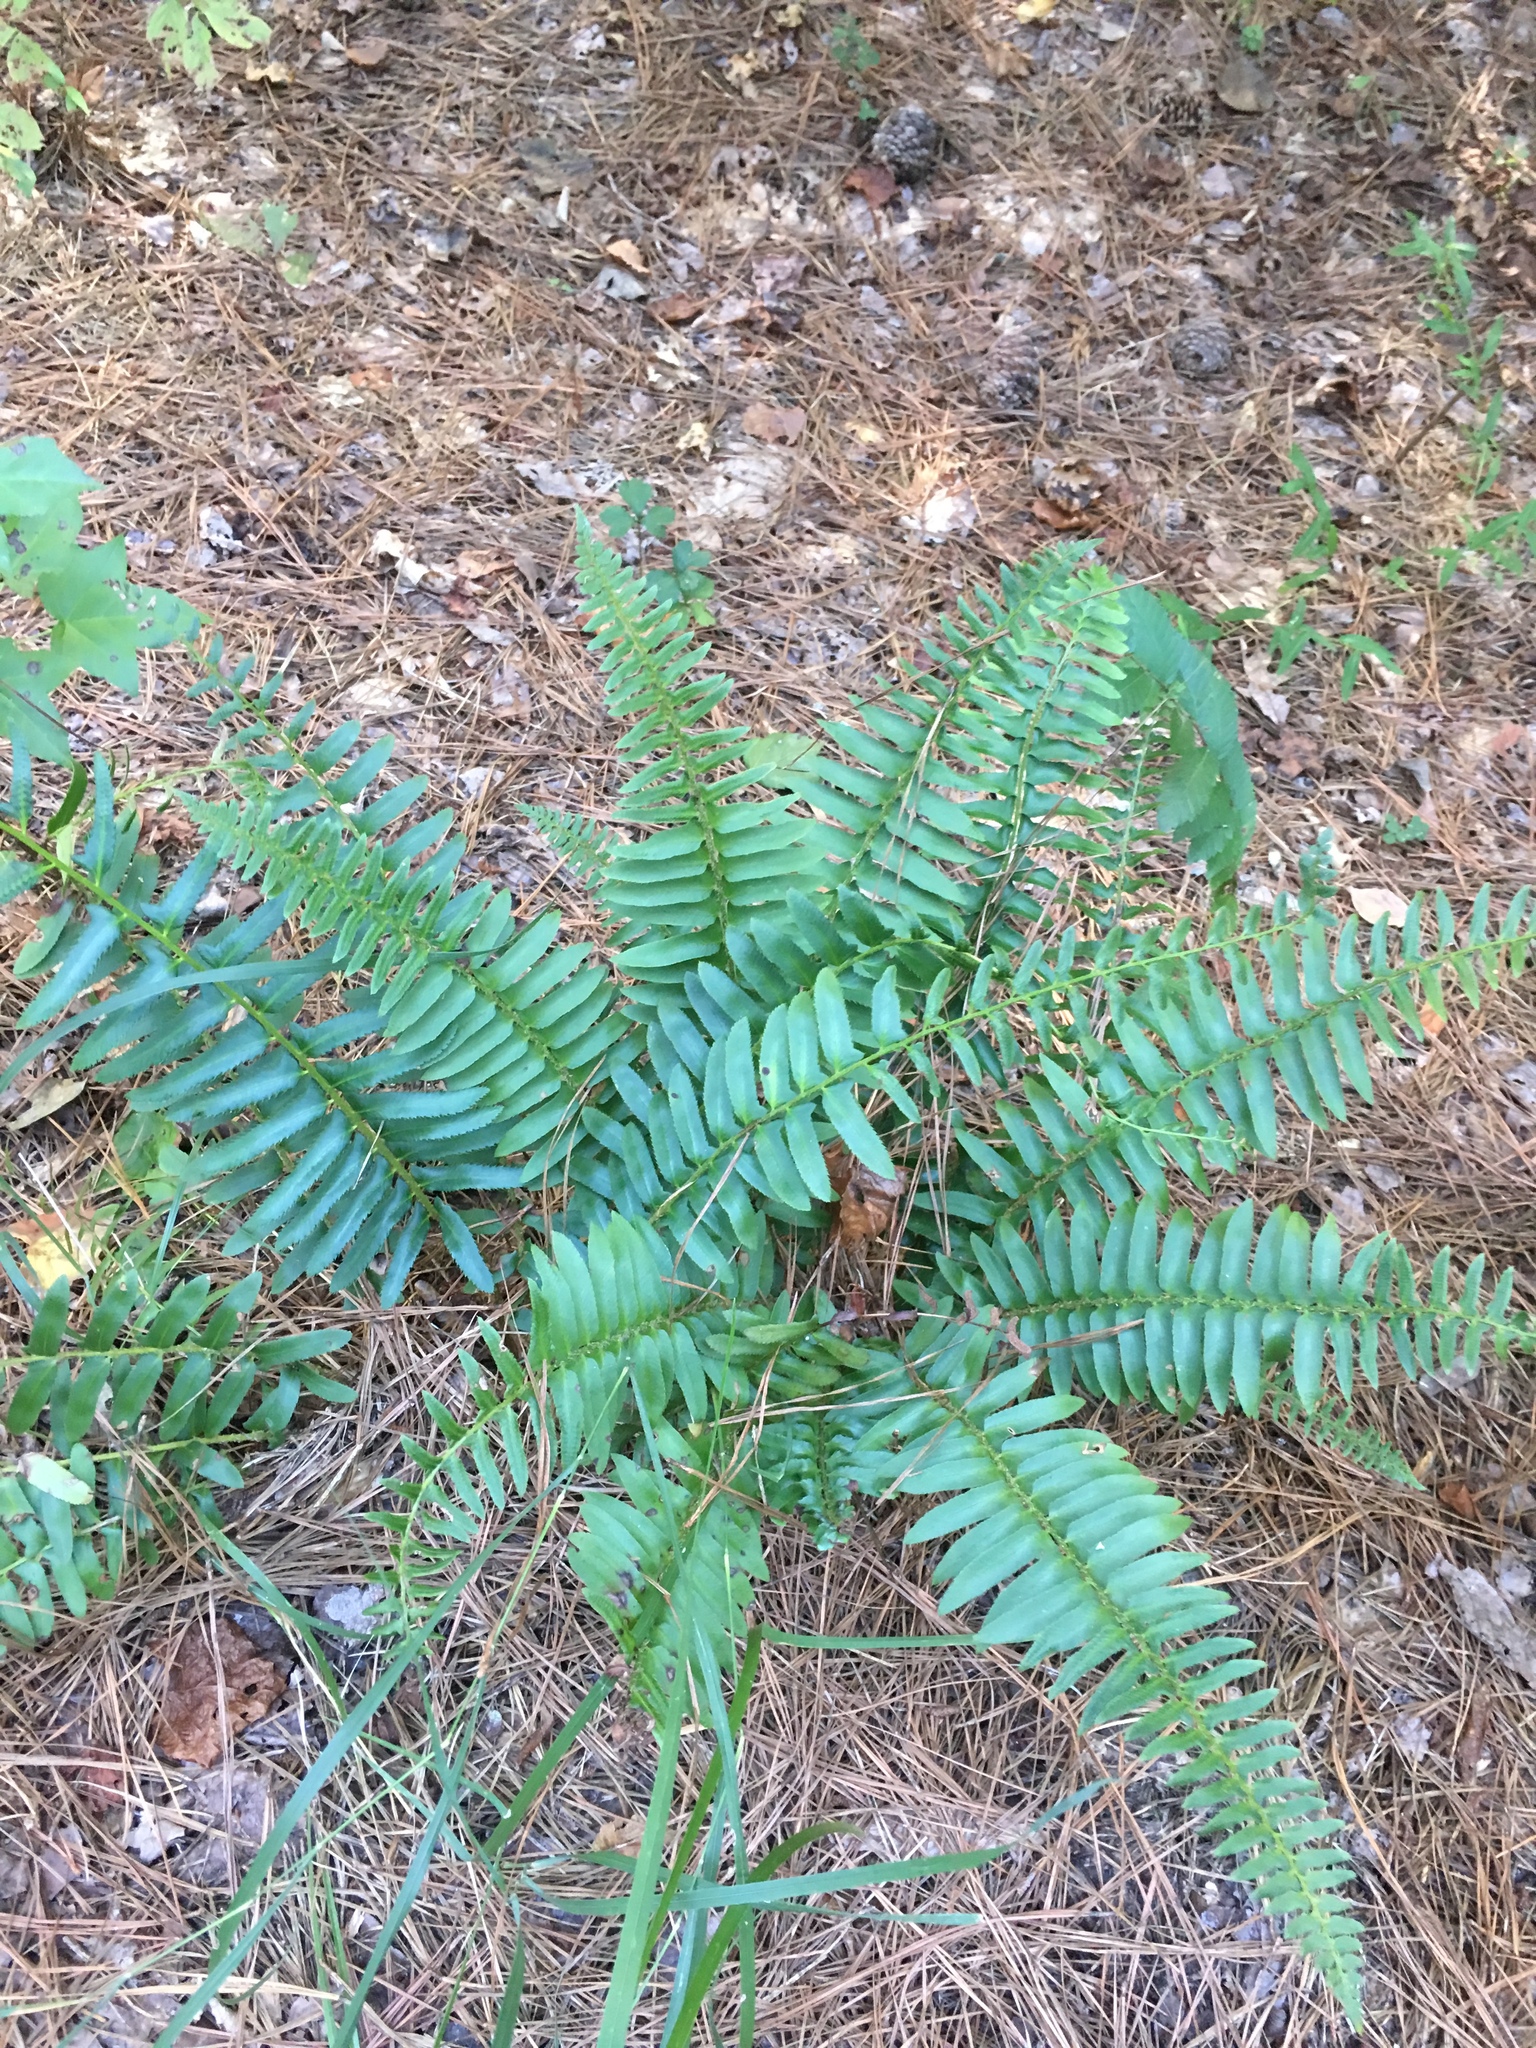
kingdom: Plantae
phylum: Tracheophyta
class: Polypodiopsida
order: Polypodiales
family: Dryopteridaceae
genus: Polystichum
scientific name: Polystichum acrostichoides
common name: Christmas fern
